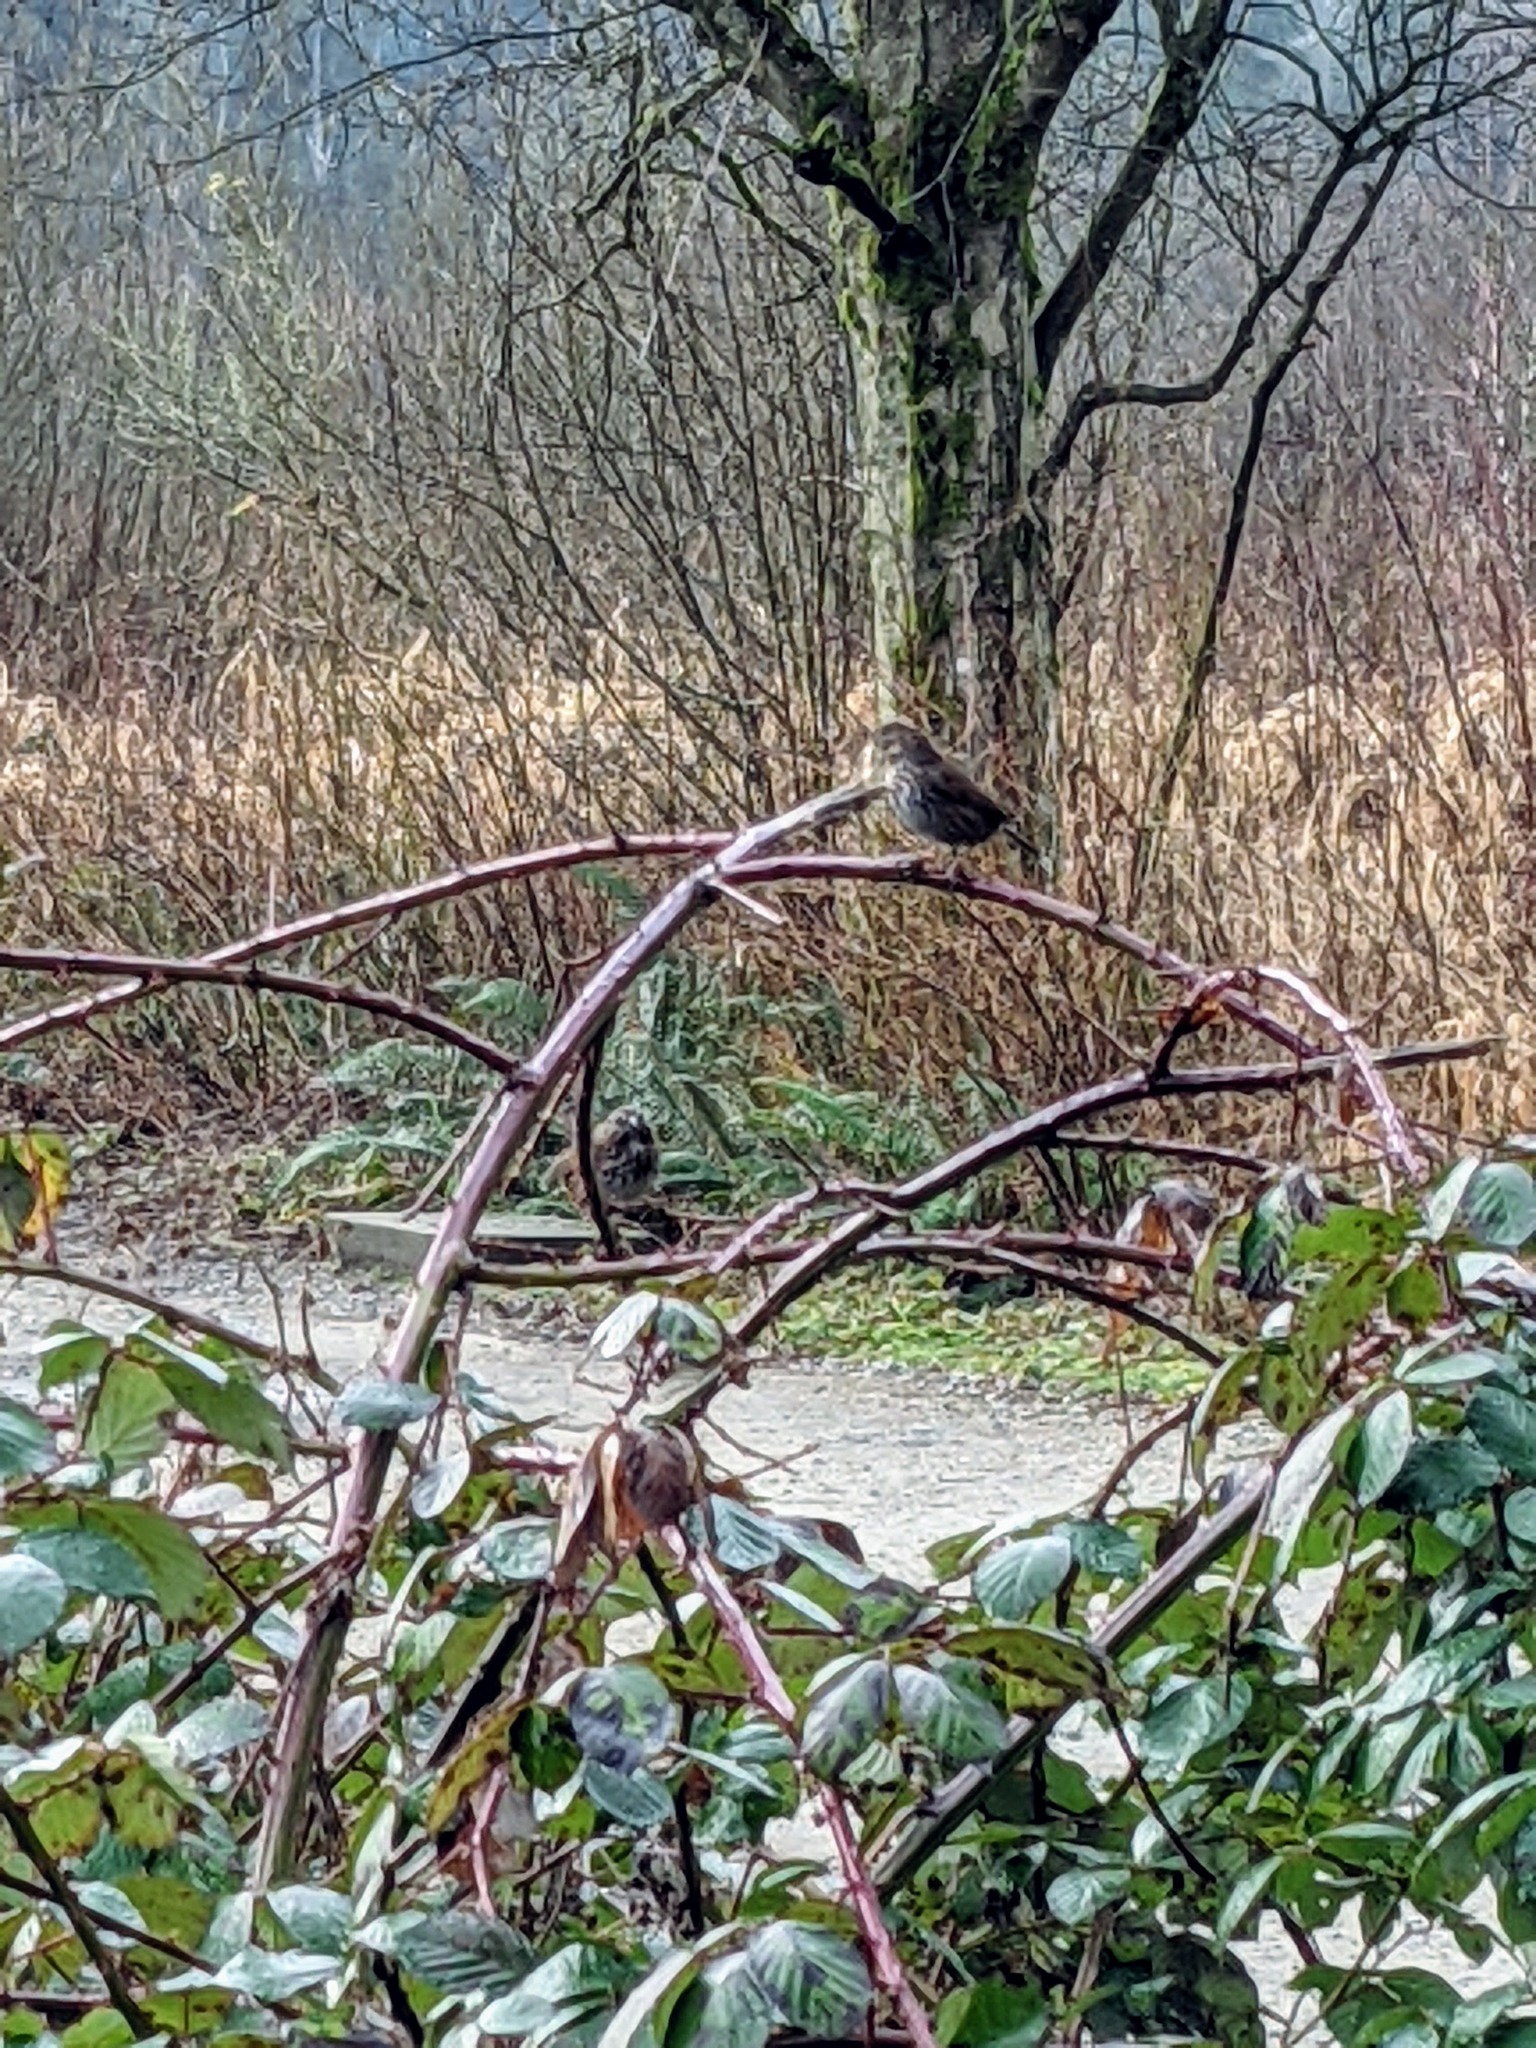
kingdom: Animalia
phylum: Chordata
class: Aves
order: Passeriformes
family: Passerellidae
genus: Melospiza
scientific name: Melospiza melodia
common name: Song sparrow
